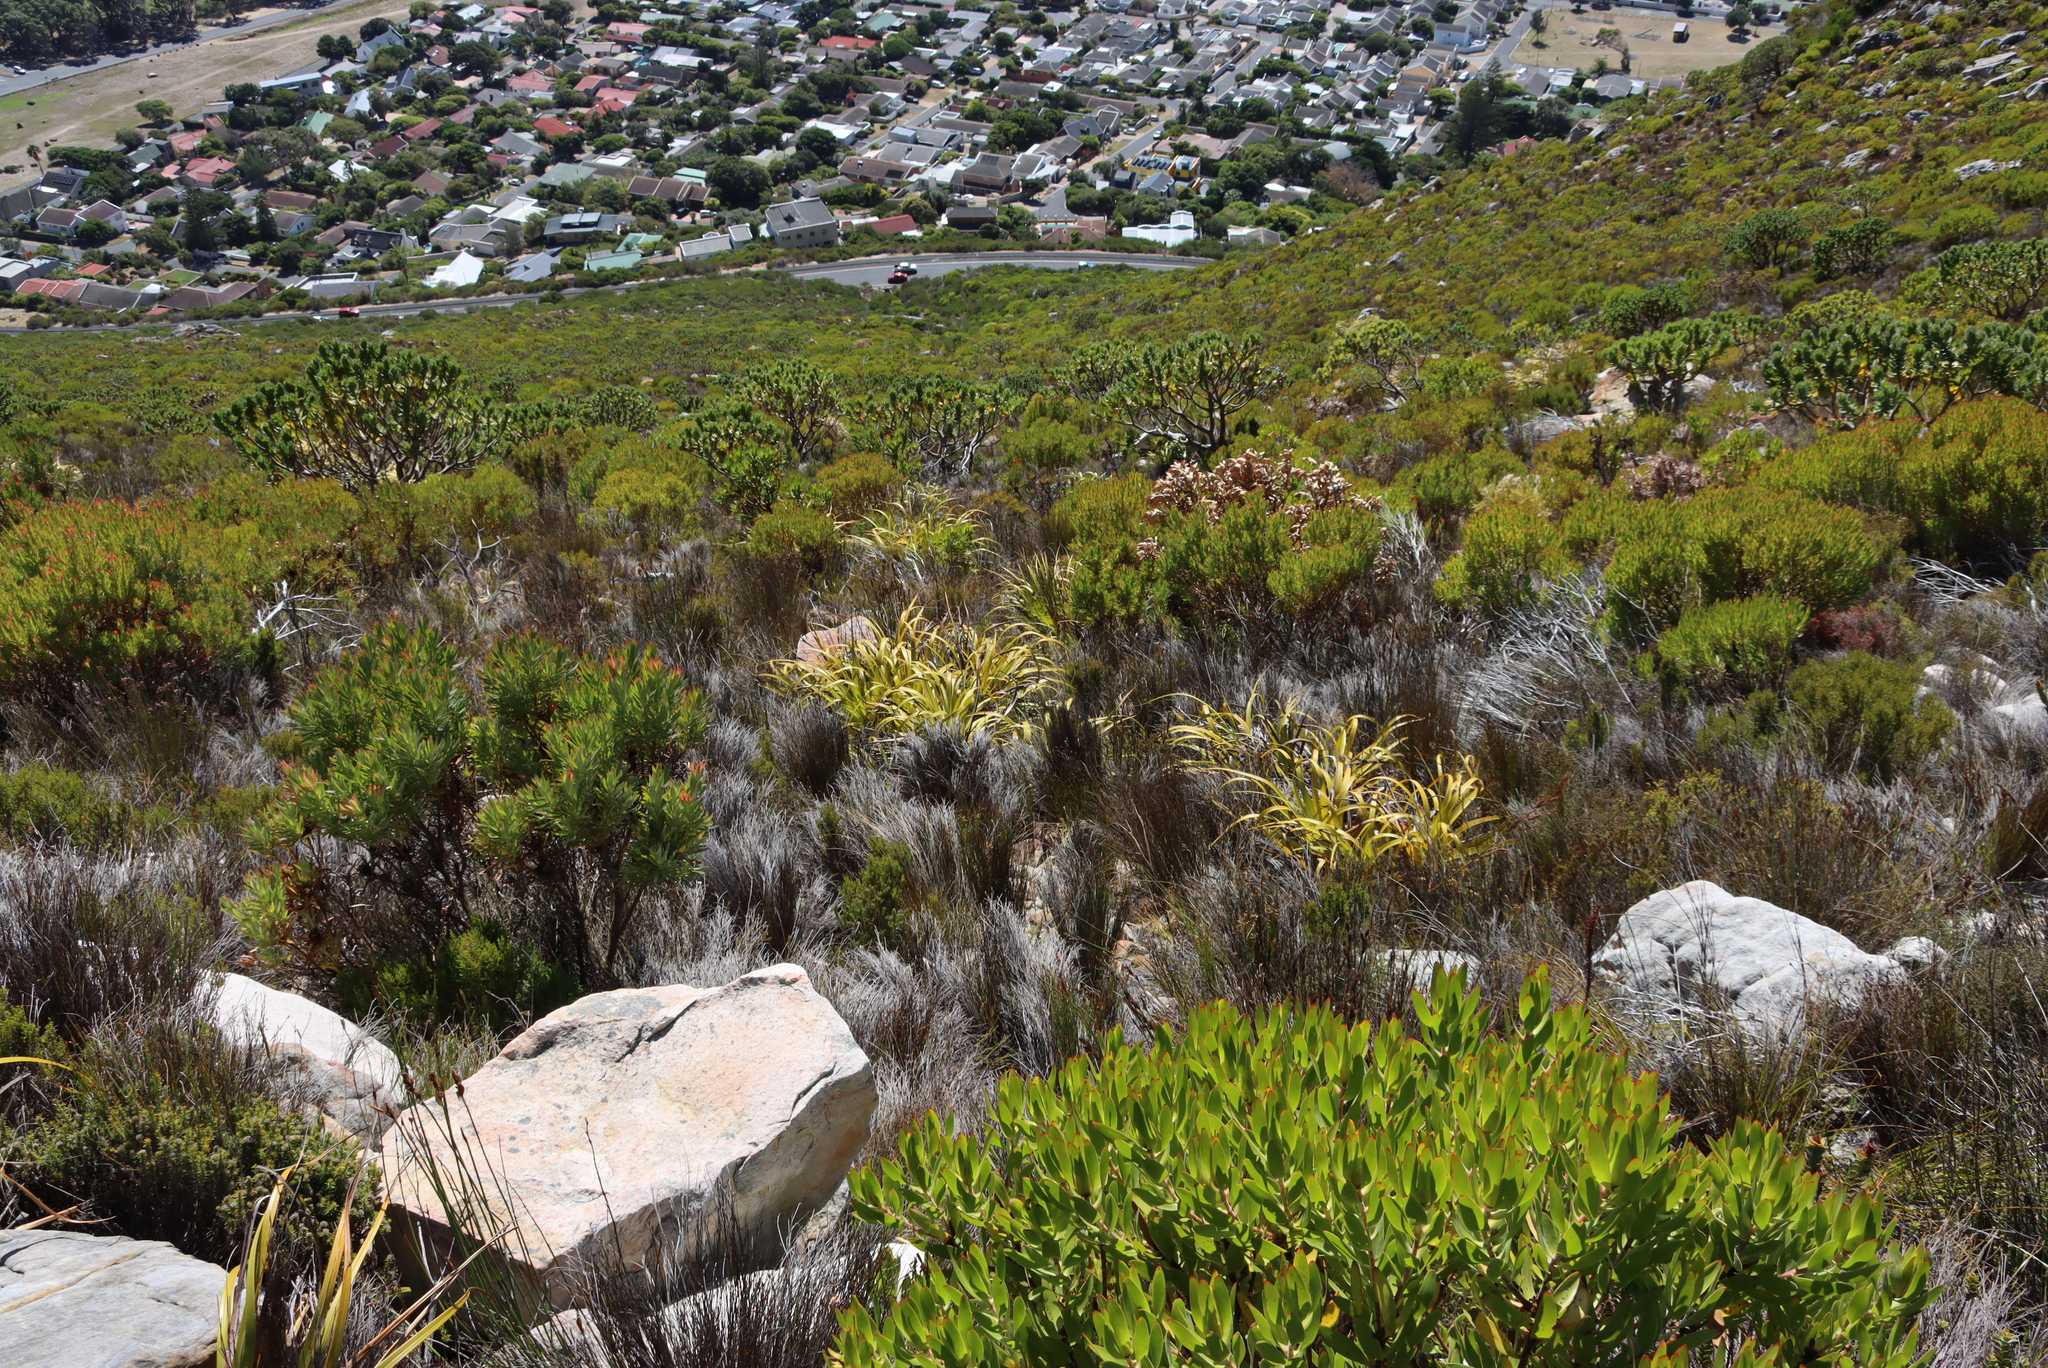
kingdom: Plantae
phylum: Tracheophyta
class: Liliopsida
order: Poales
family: Cyperaceae
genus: Tetraria
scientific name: Tetraria thermalis
